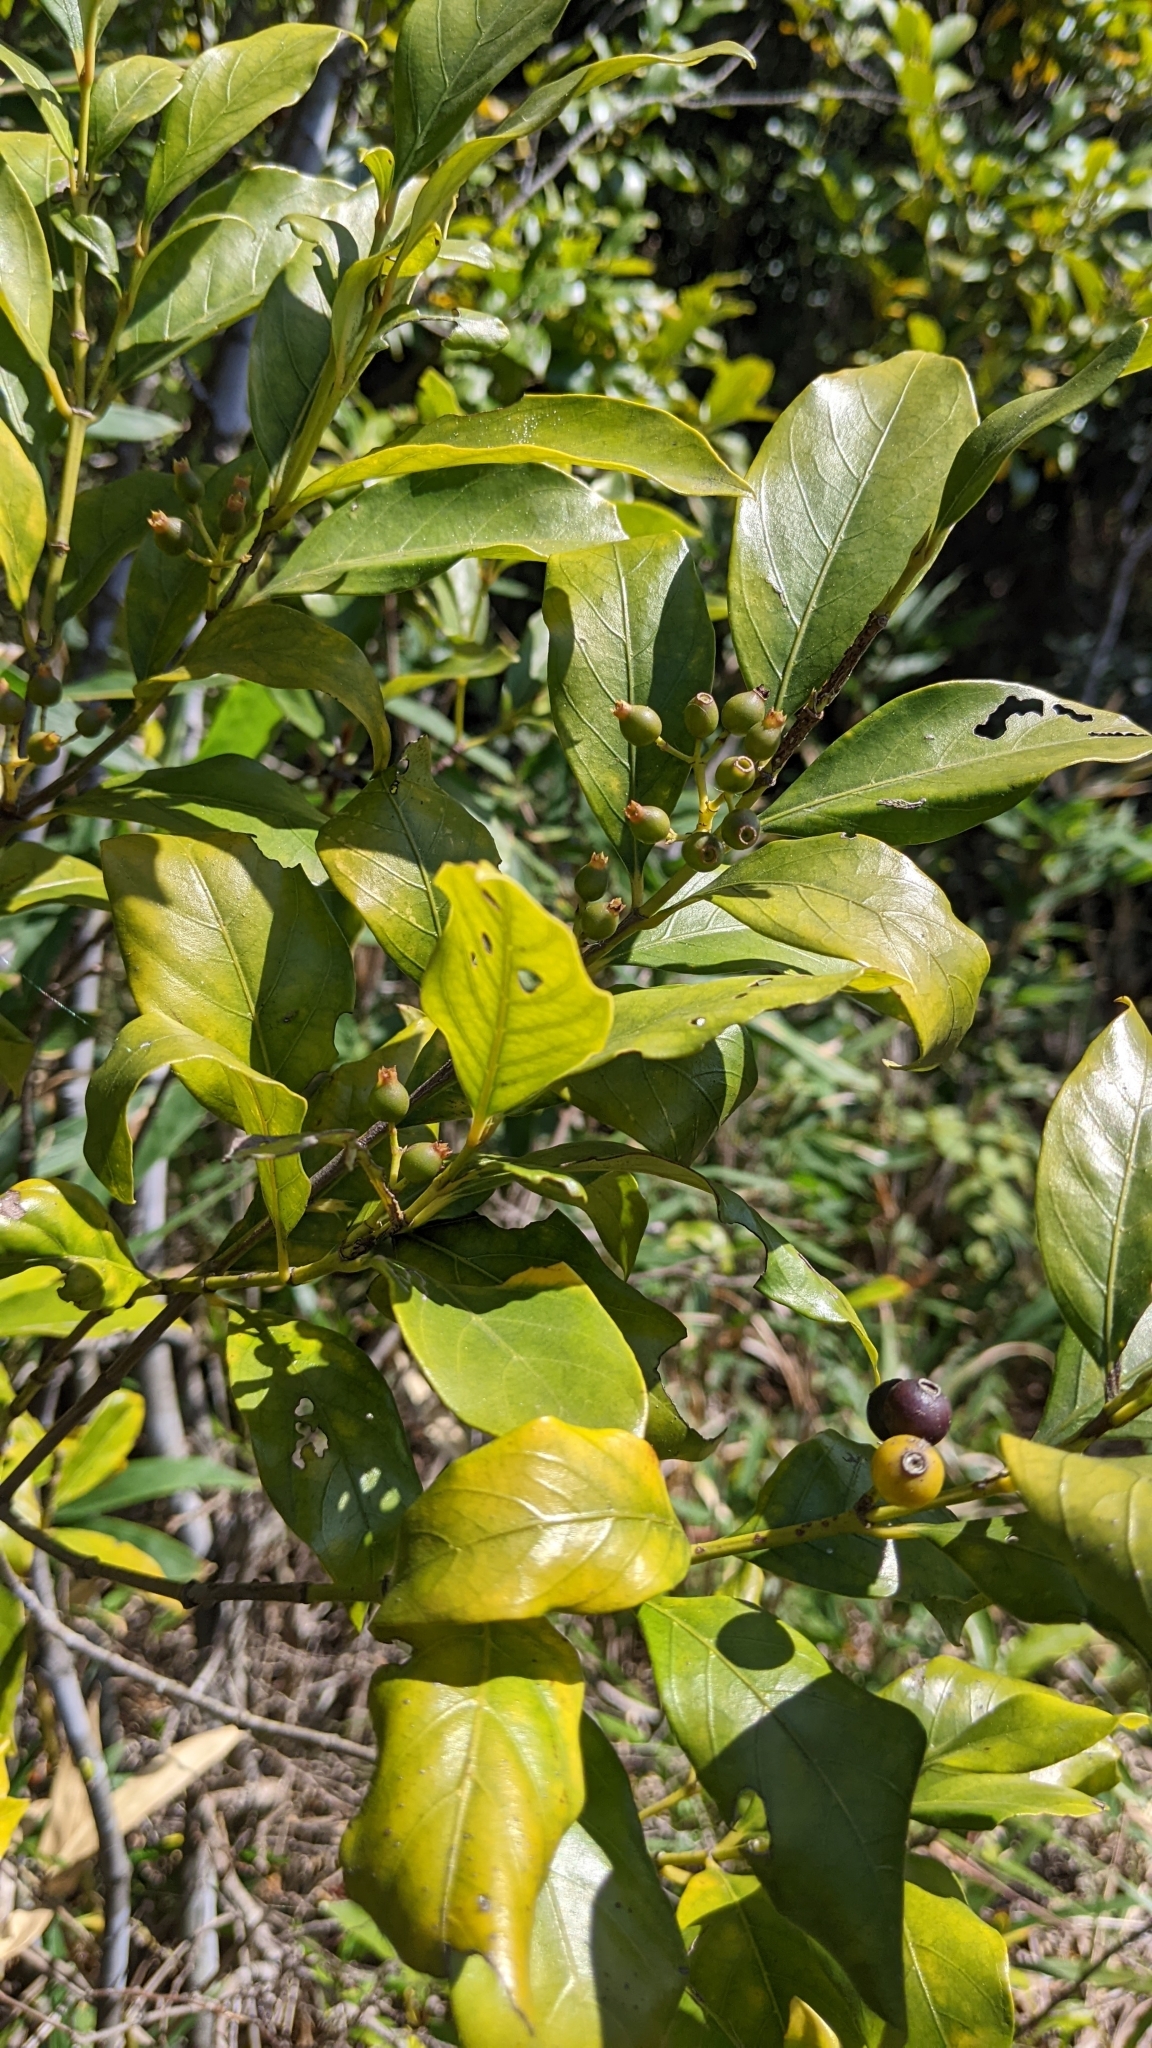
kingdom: Plantae
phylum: Tracheophyta
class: Magnoliopsida
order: Gentianales
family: Rubiaceae
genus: Aidia
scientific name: Aidia cochinchinensis
